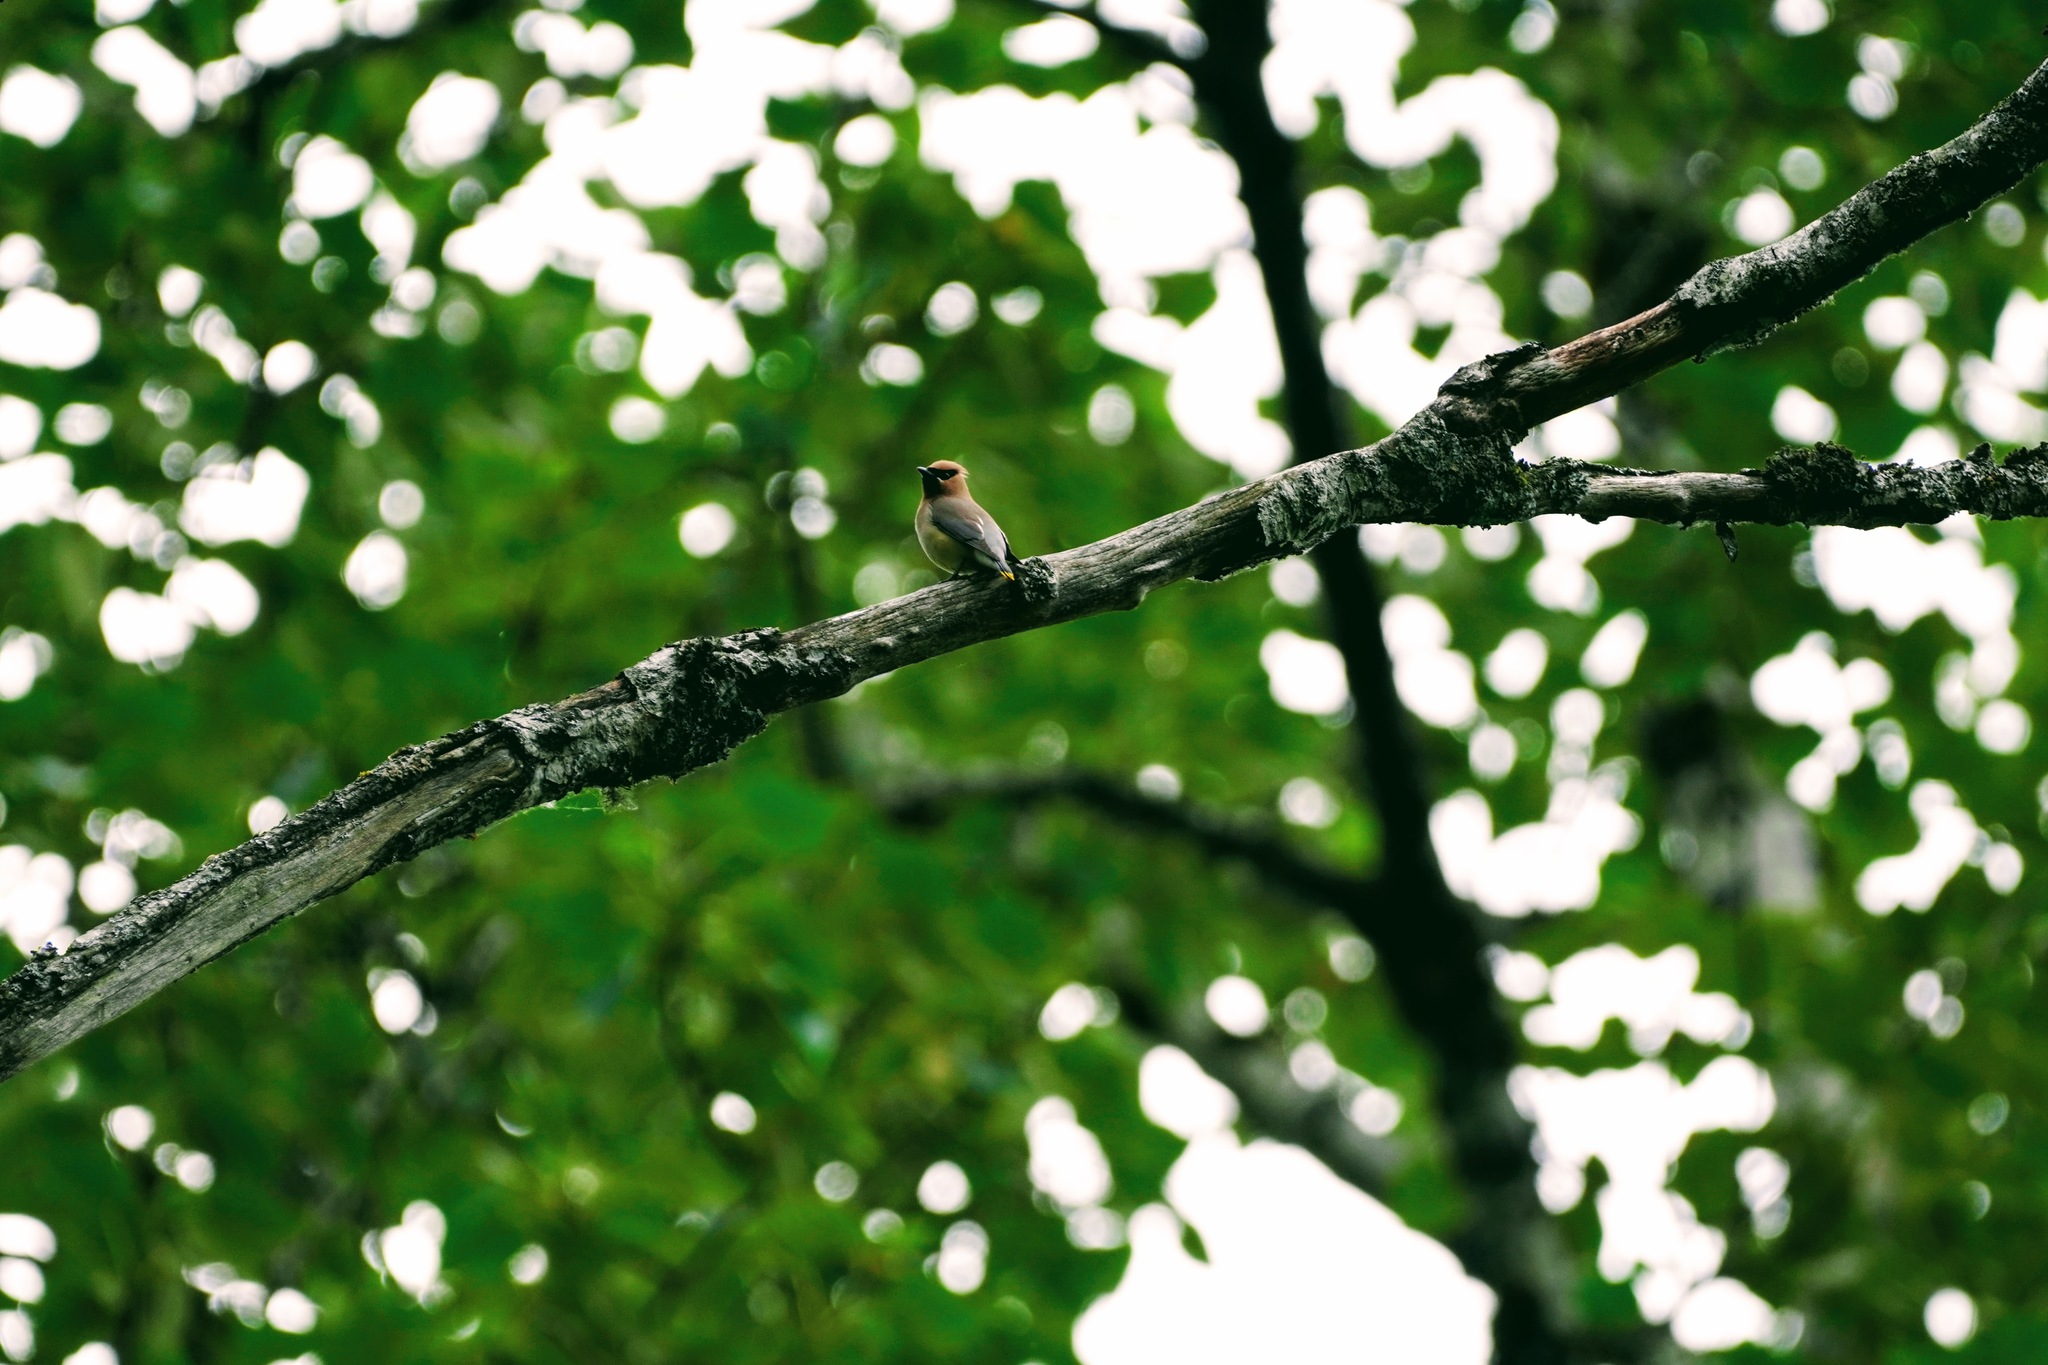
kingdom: Animalia
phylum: Chordata
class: Aves
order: Passeriformes
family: Bombycillidae
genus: Bombycilla
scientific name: Bombycilla cedrorum
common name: Cedar waxwing
